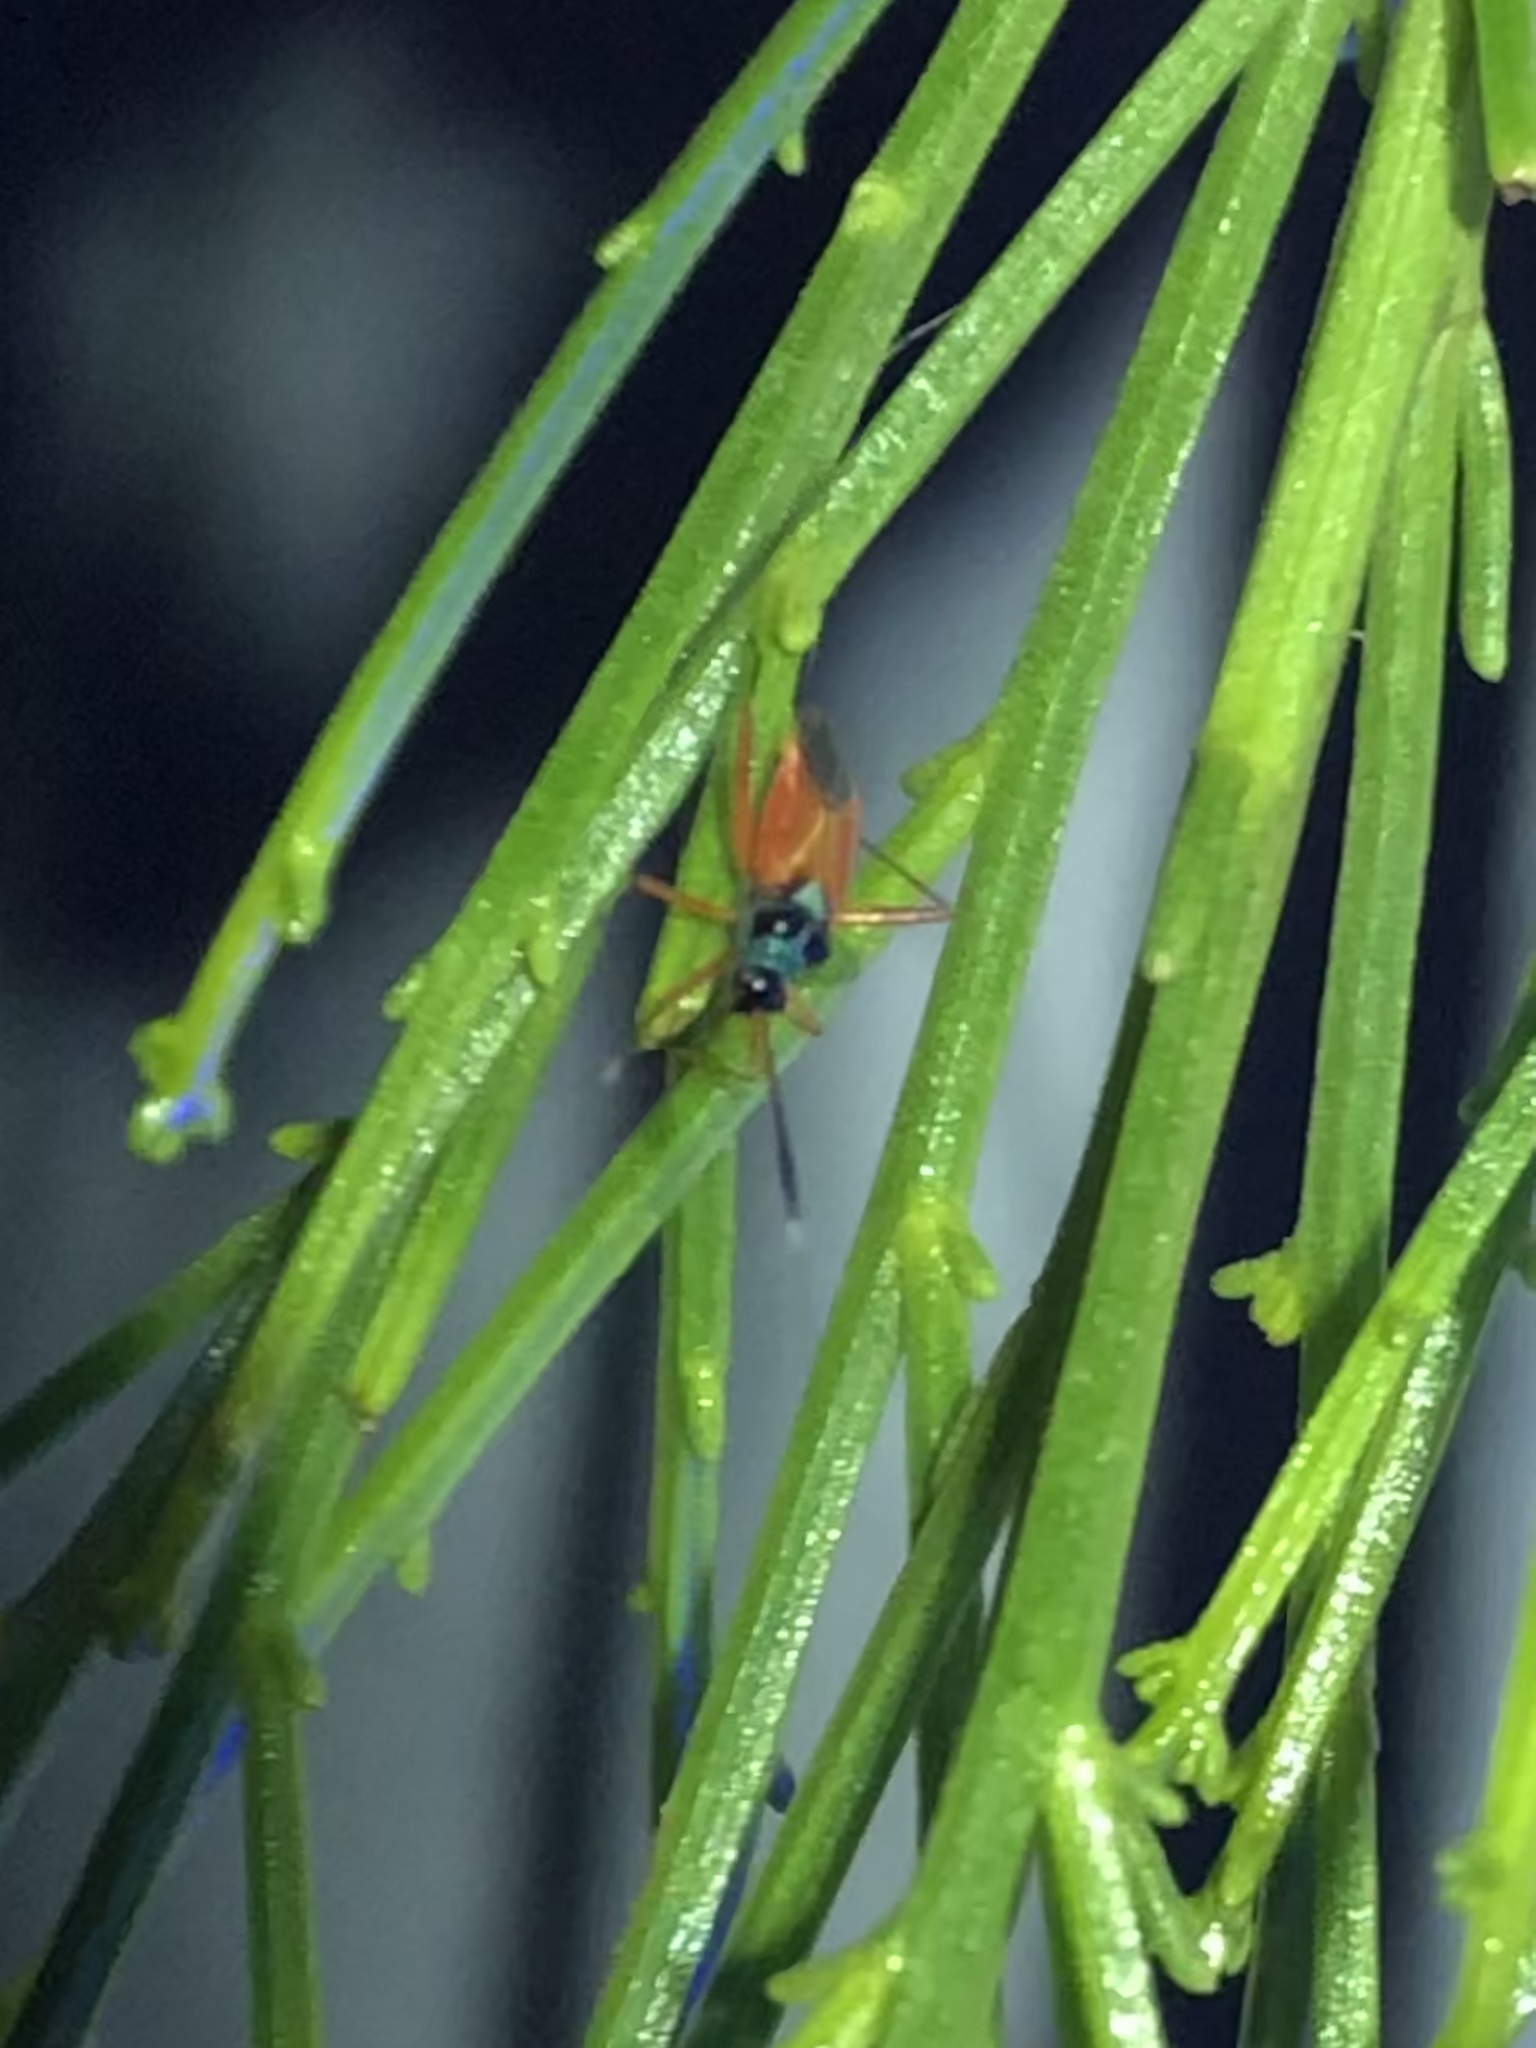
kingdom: Animalia
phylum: Arthropoda
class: Insecta
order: Hemiptera
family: Miridae
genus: Garganus
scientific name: Garganus splendidus
